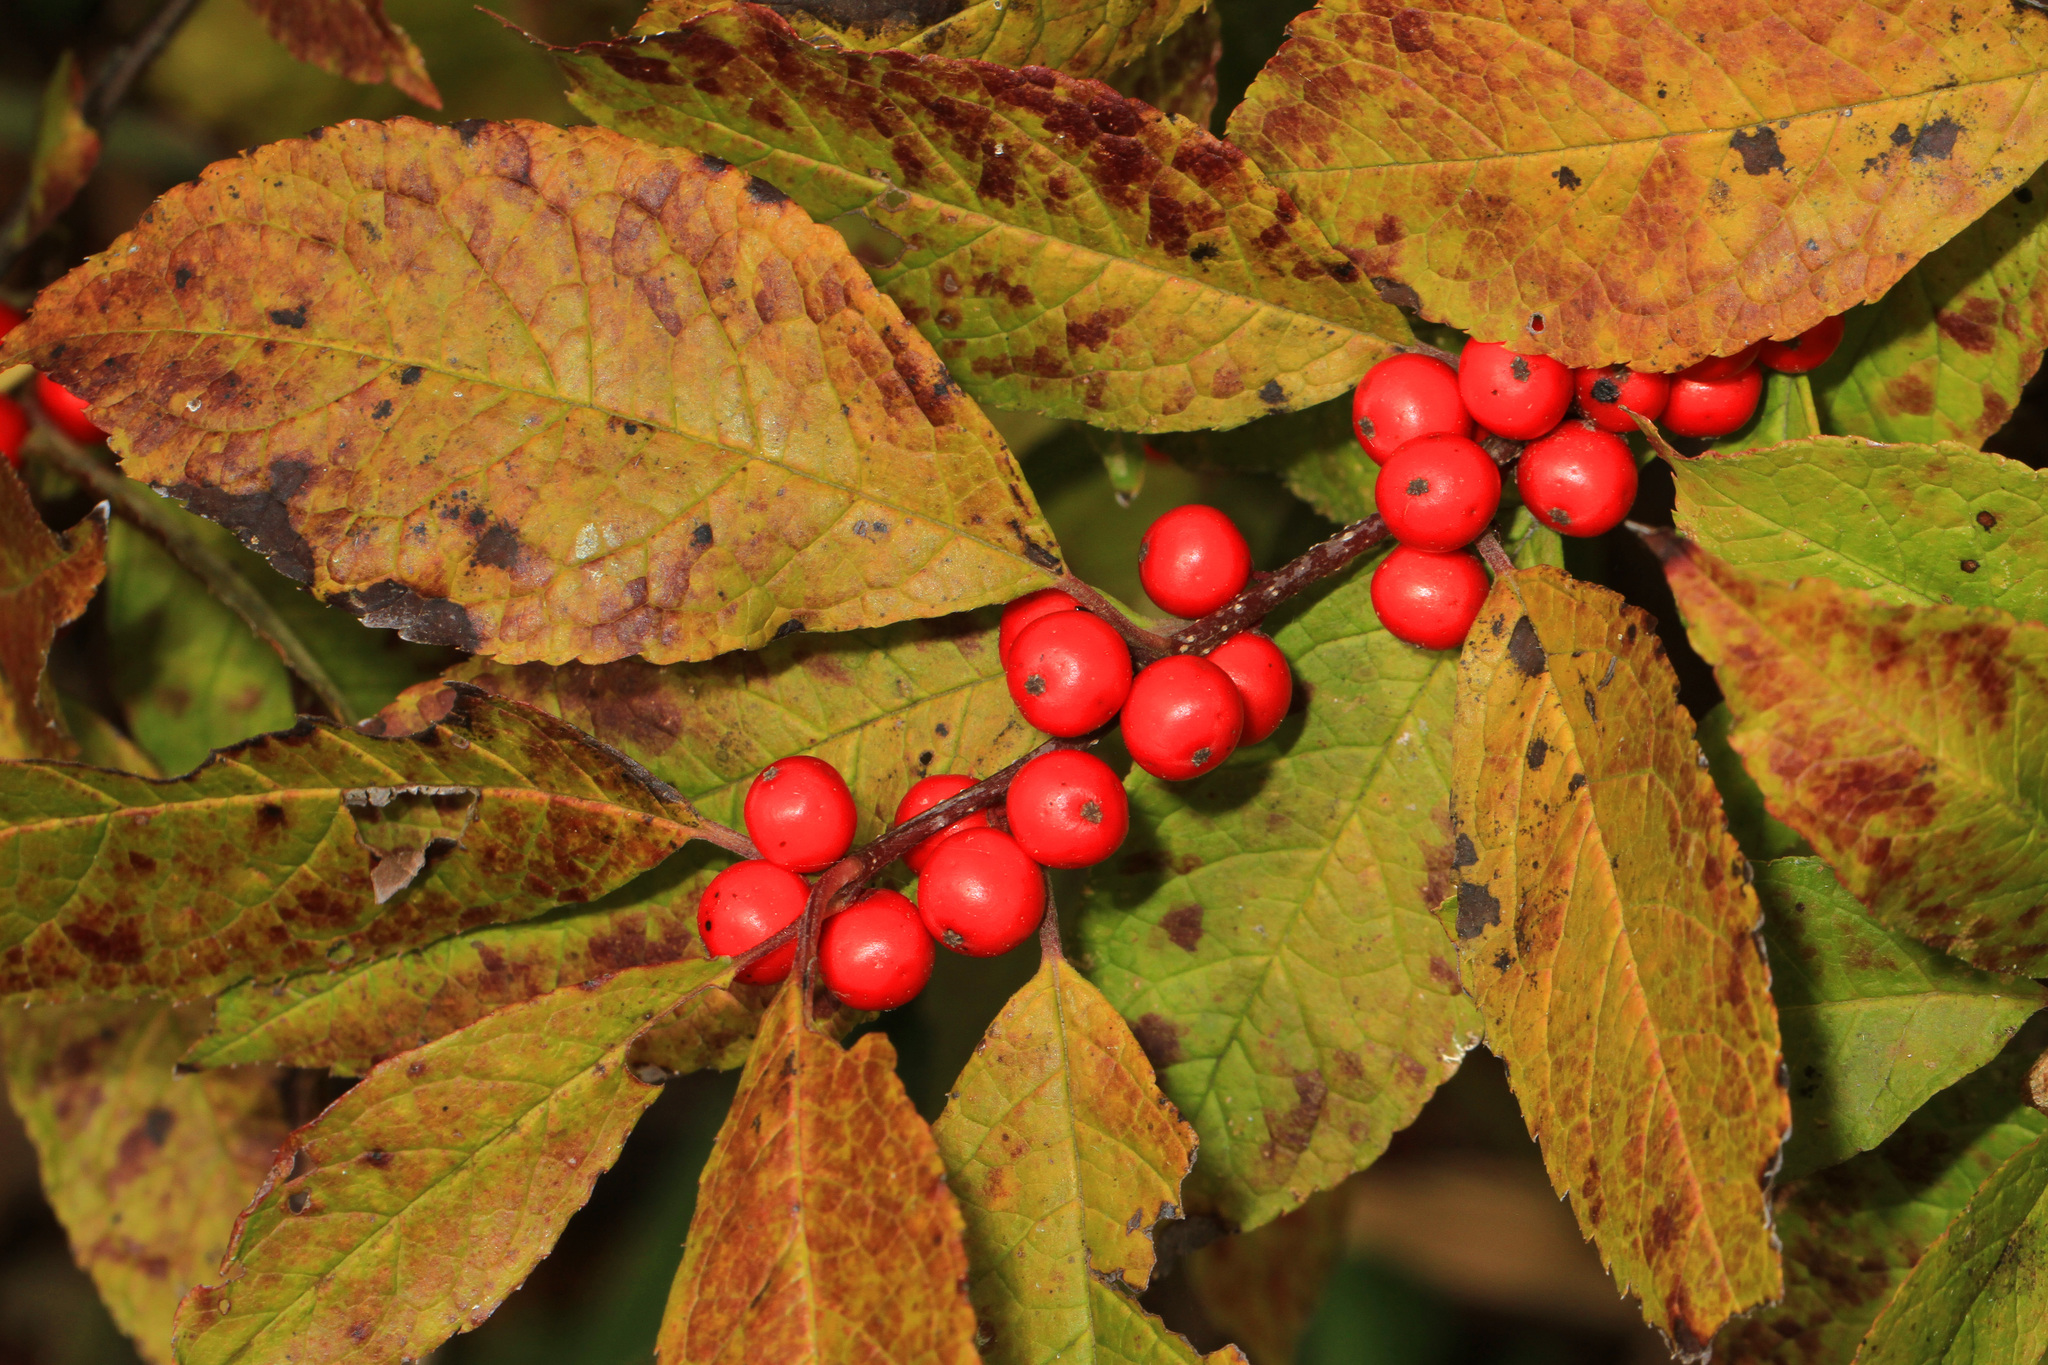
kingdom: Plantae
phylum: Tracheophyta
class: Magnoliopsida
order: Aquifoliales
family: Aquifoliaceae
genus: Ilex
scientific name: Ilex verticillata
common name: Virginia winterberry
